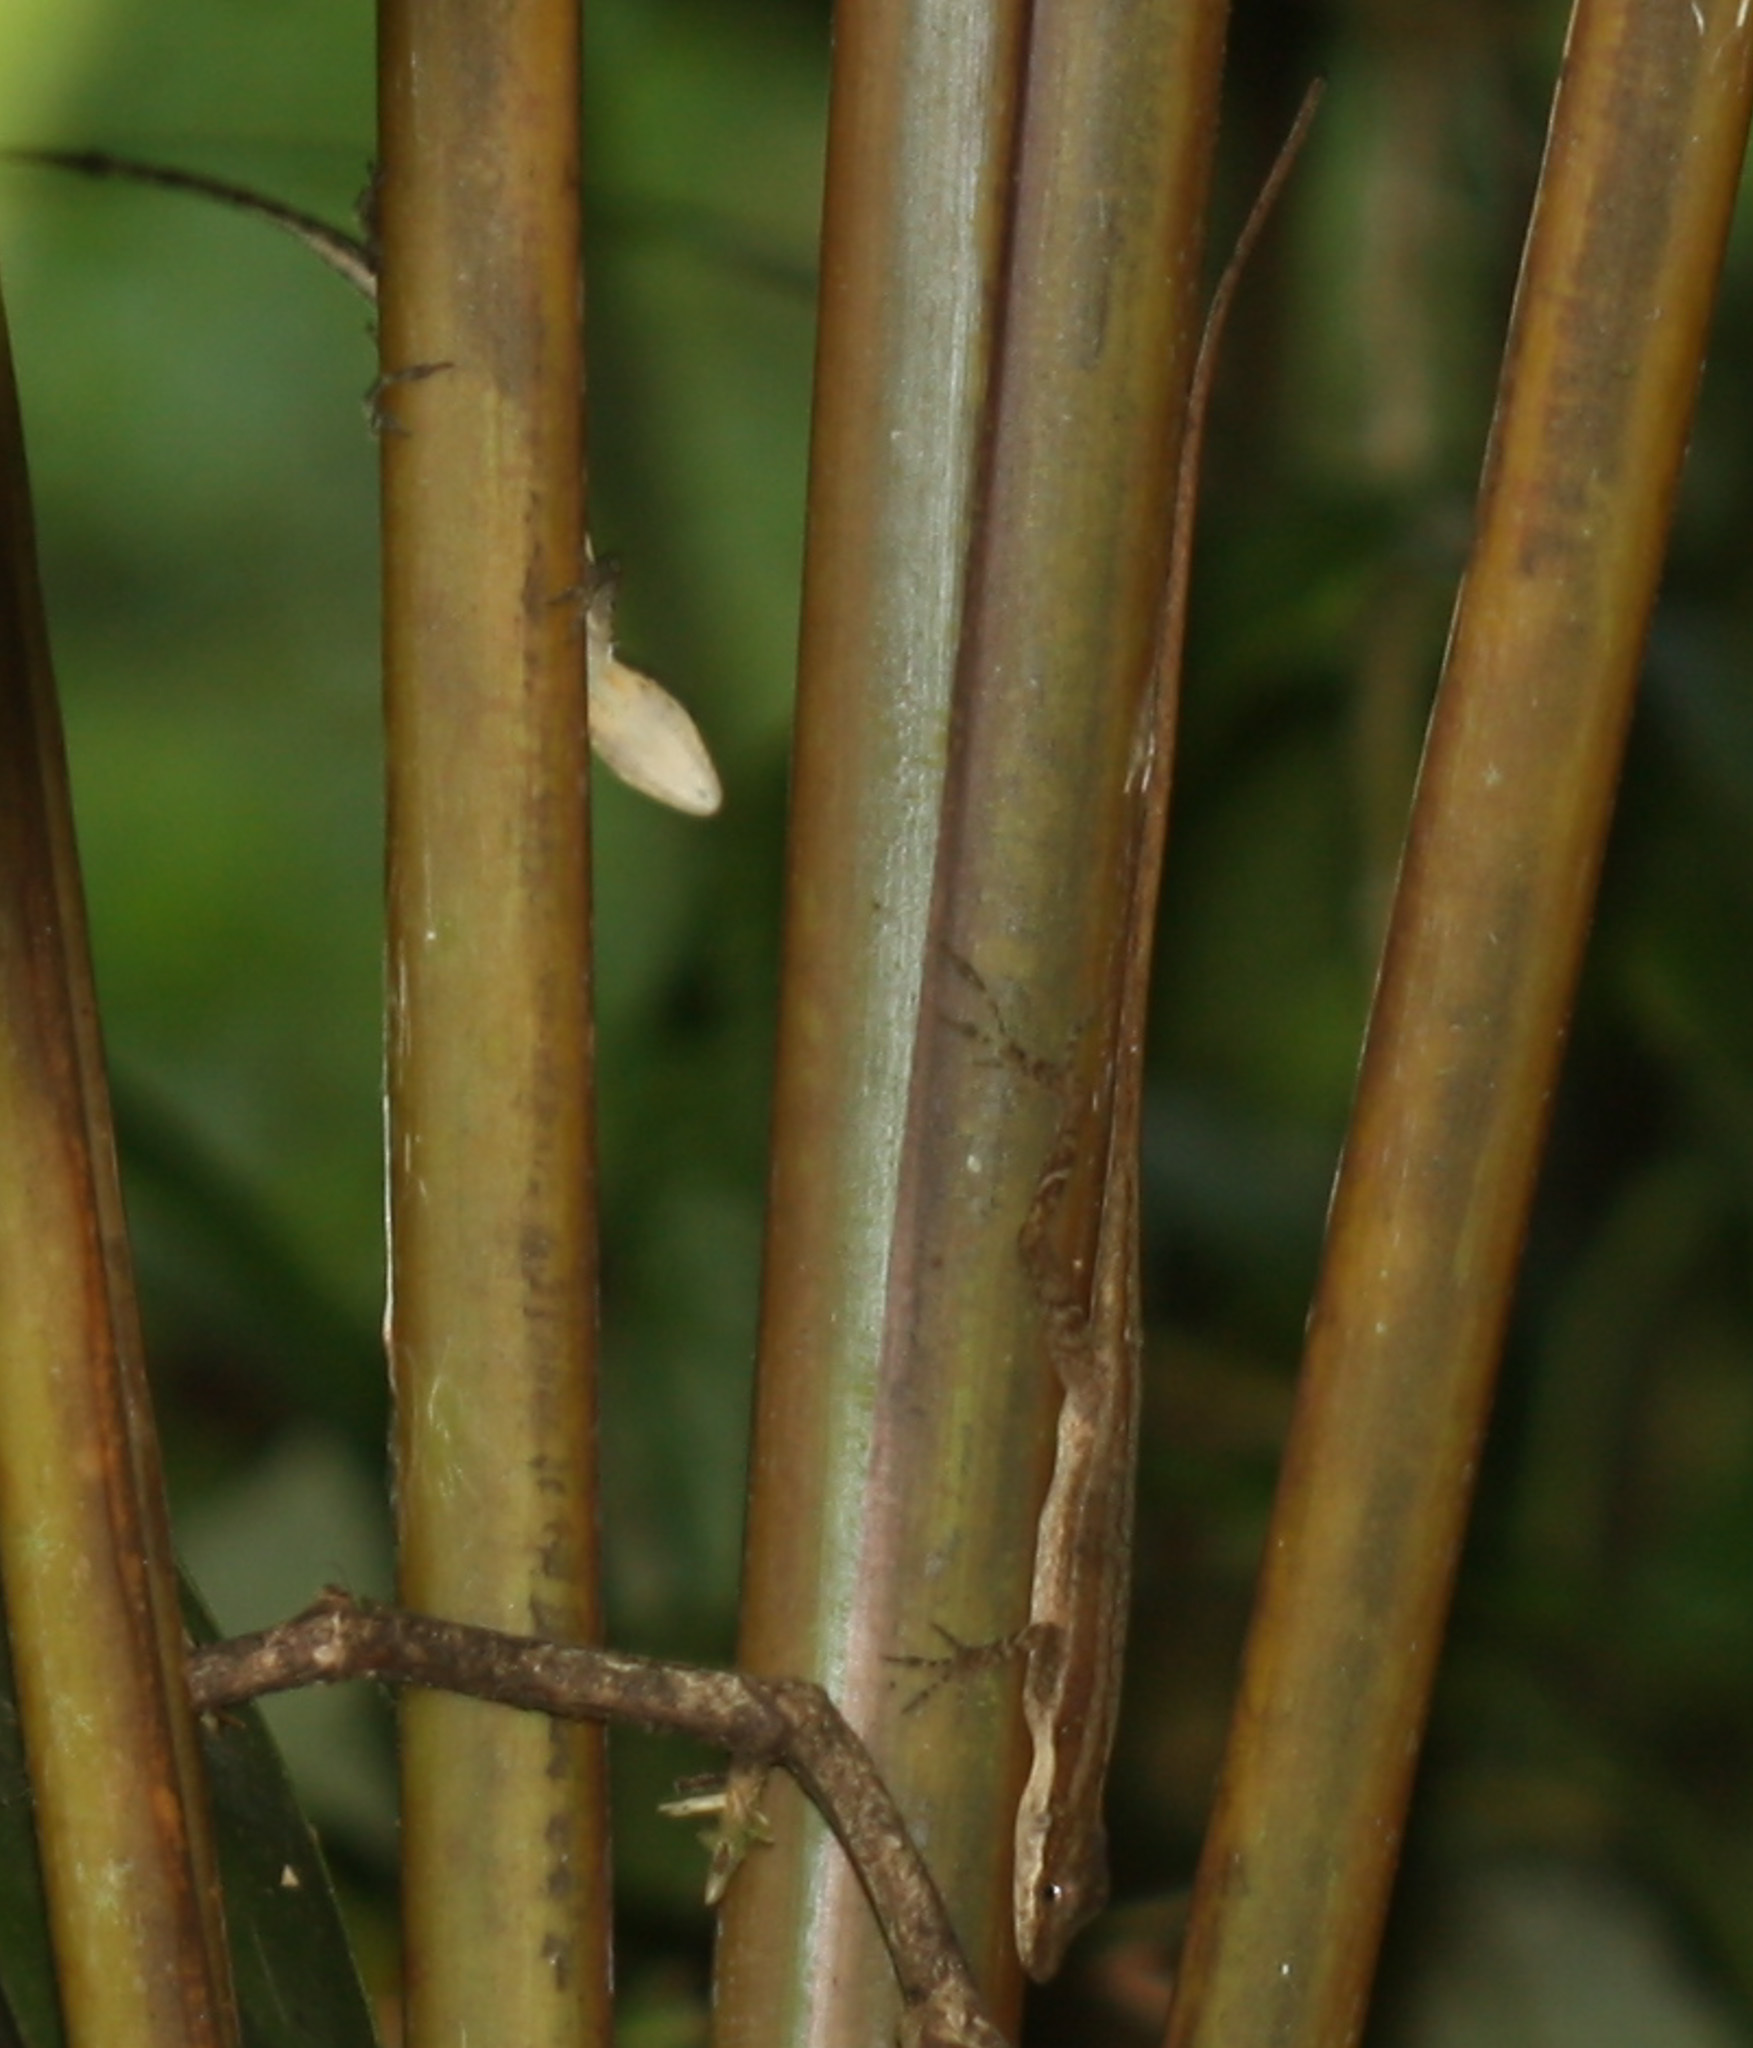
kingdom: Animalia
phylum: Chordata
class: Squamata
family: Dactyloidae
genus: Anolis
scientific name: Anolis limifrons
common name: Border anole
